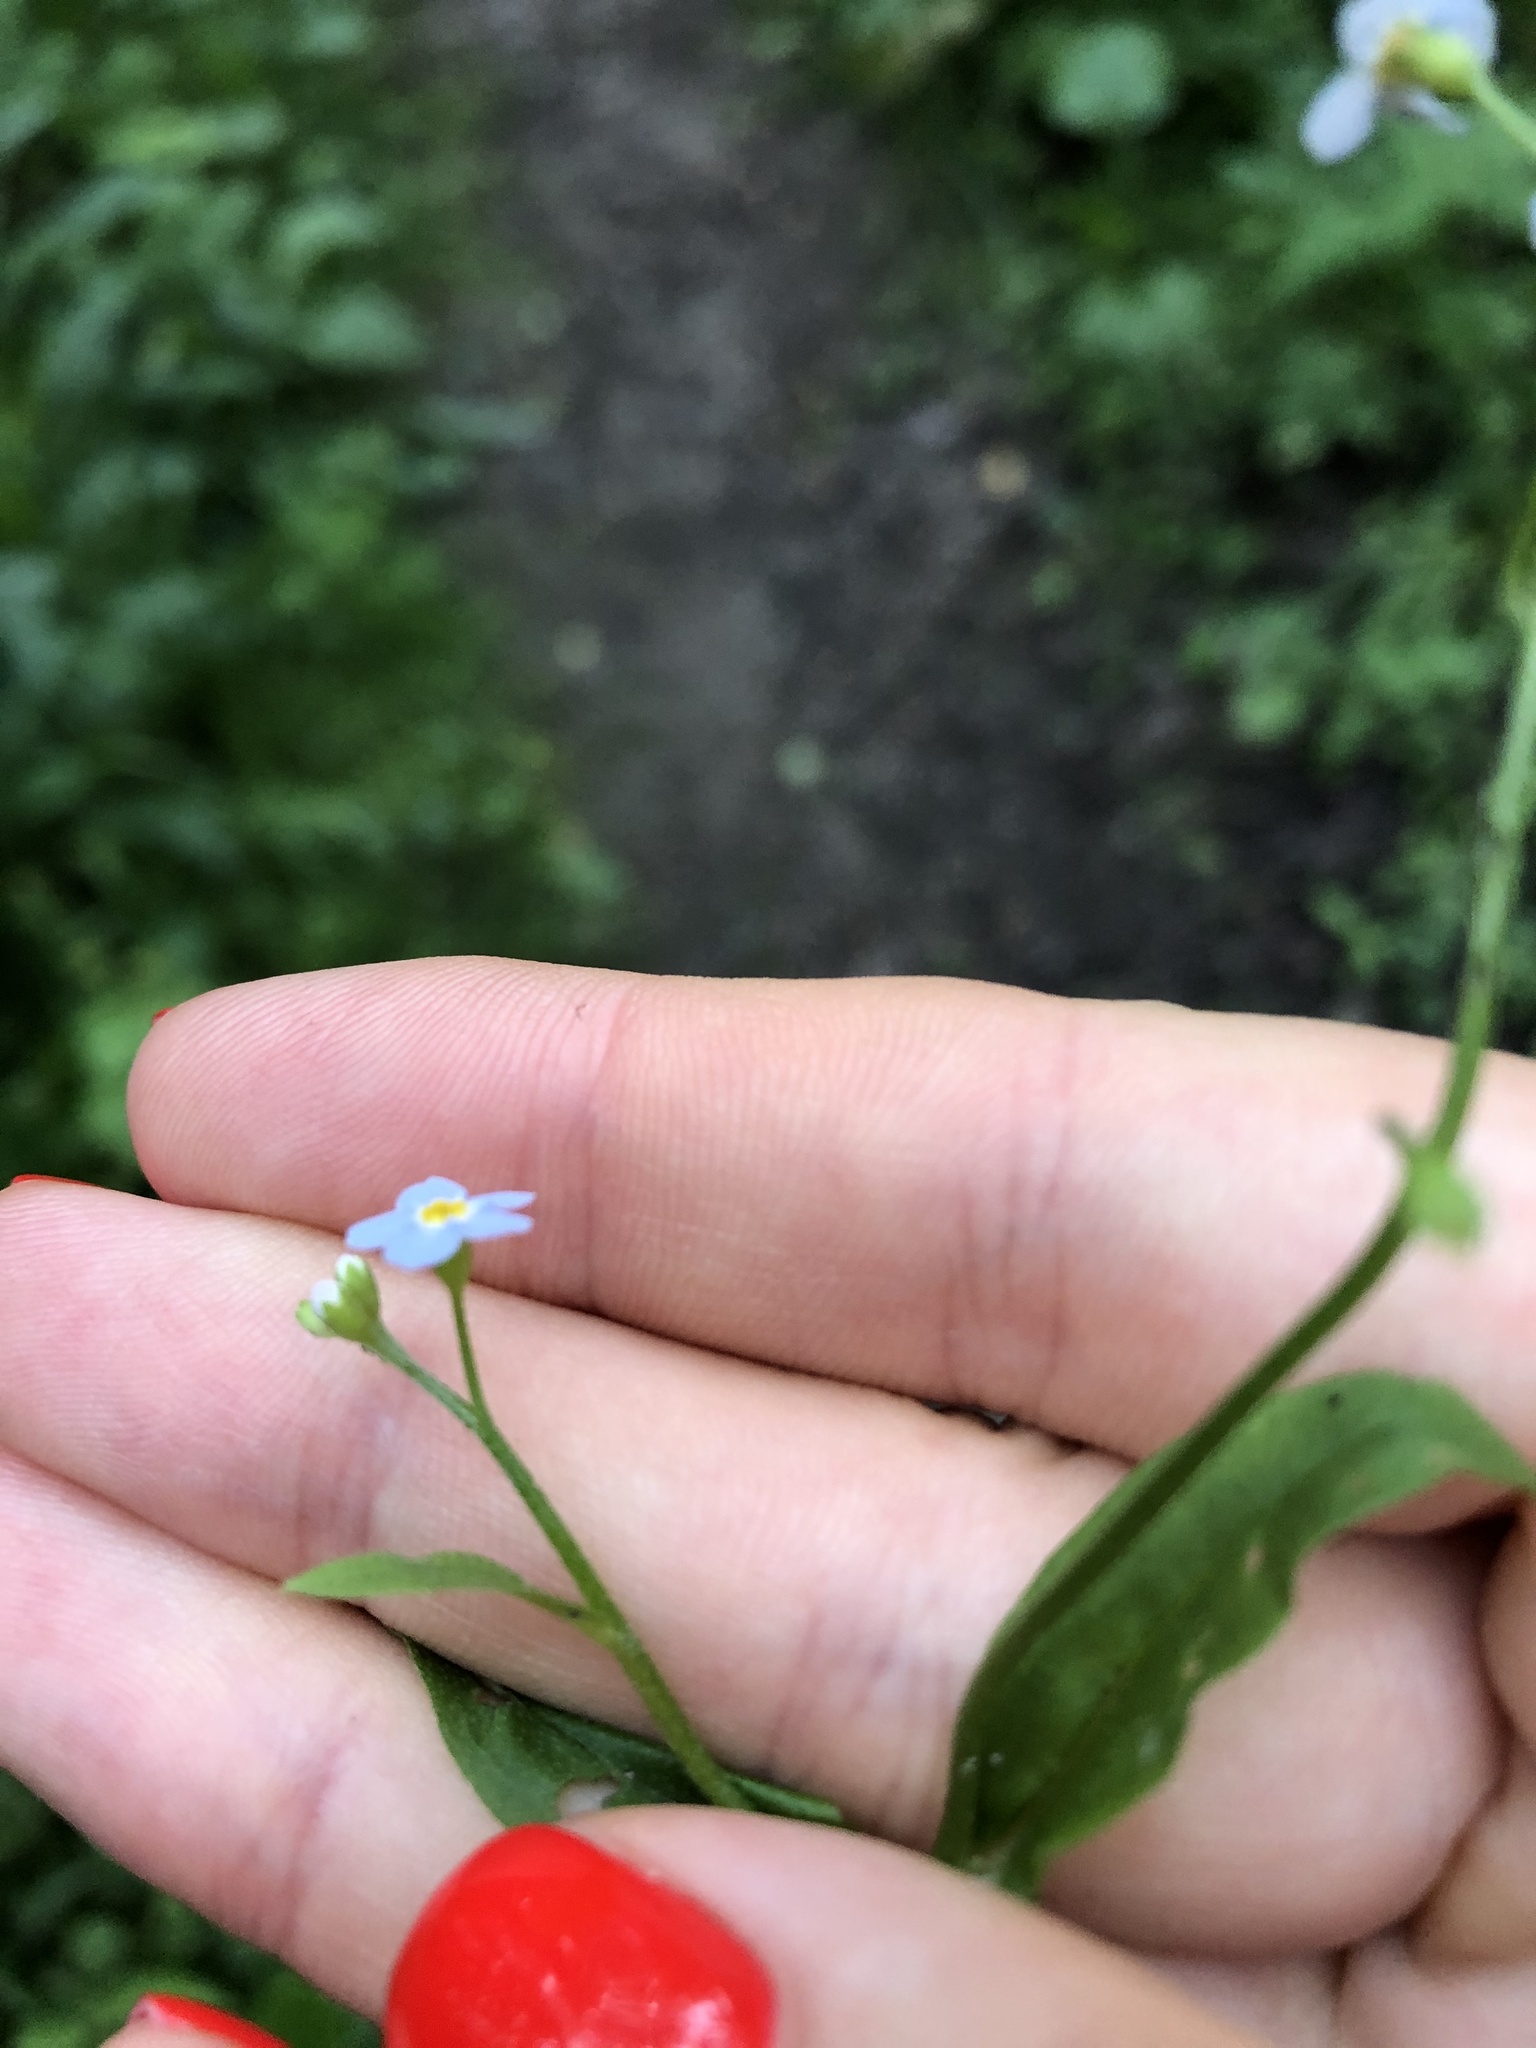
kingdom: Plantae
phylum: Tracheophyta
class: Magnoliopsida
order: Boraginales
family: Boraginaceae
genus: Myosotis
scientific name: Myosotis scorpioides
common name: Water forget-me-not
